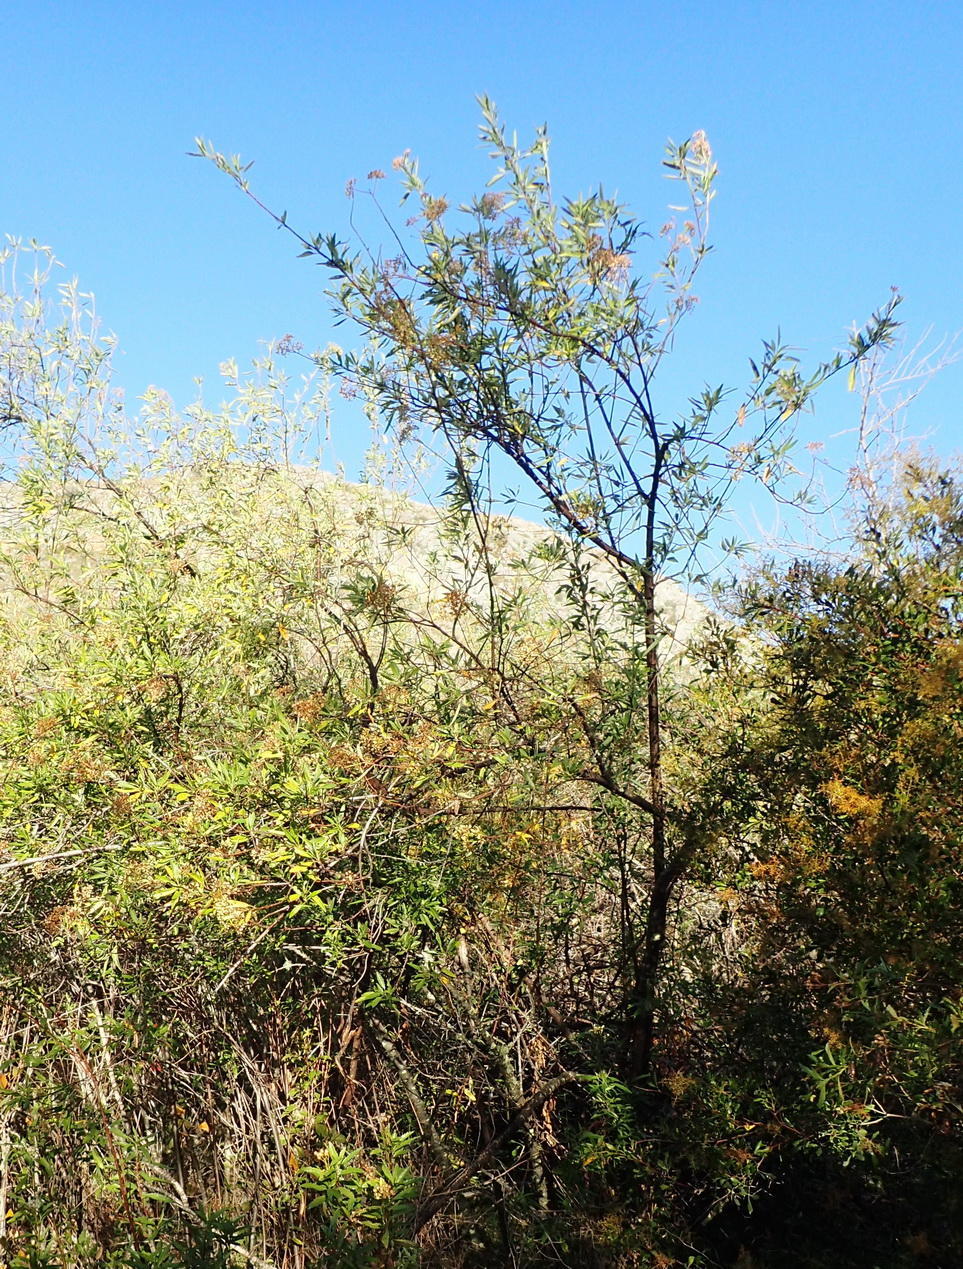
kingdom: Plantae
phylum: Tracheophyta
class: Magnoliopsida
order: Apiales
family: Apiaceae
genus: Heteromorpha
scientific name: Heteromorpha arborescens
